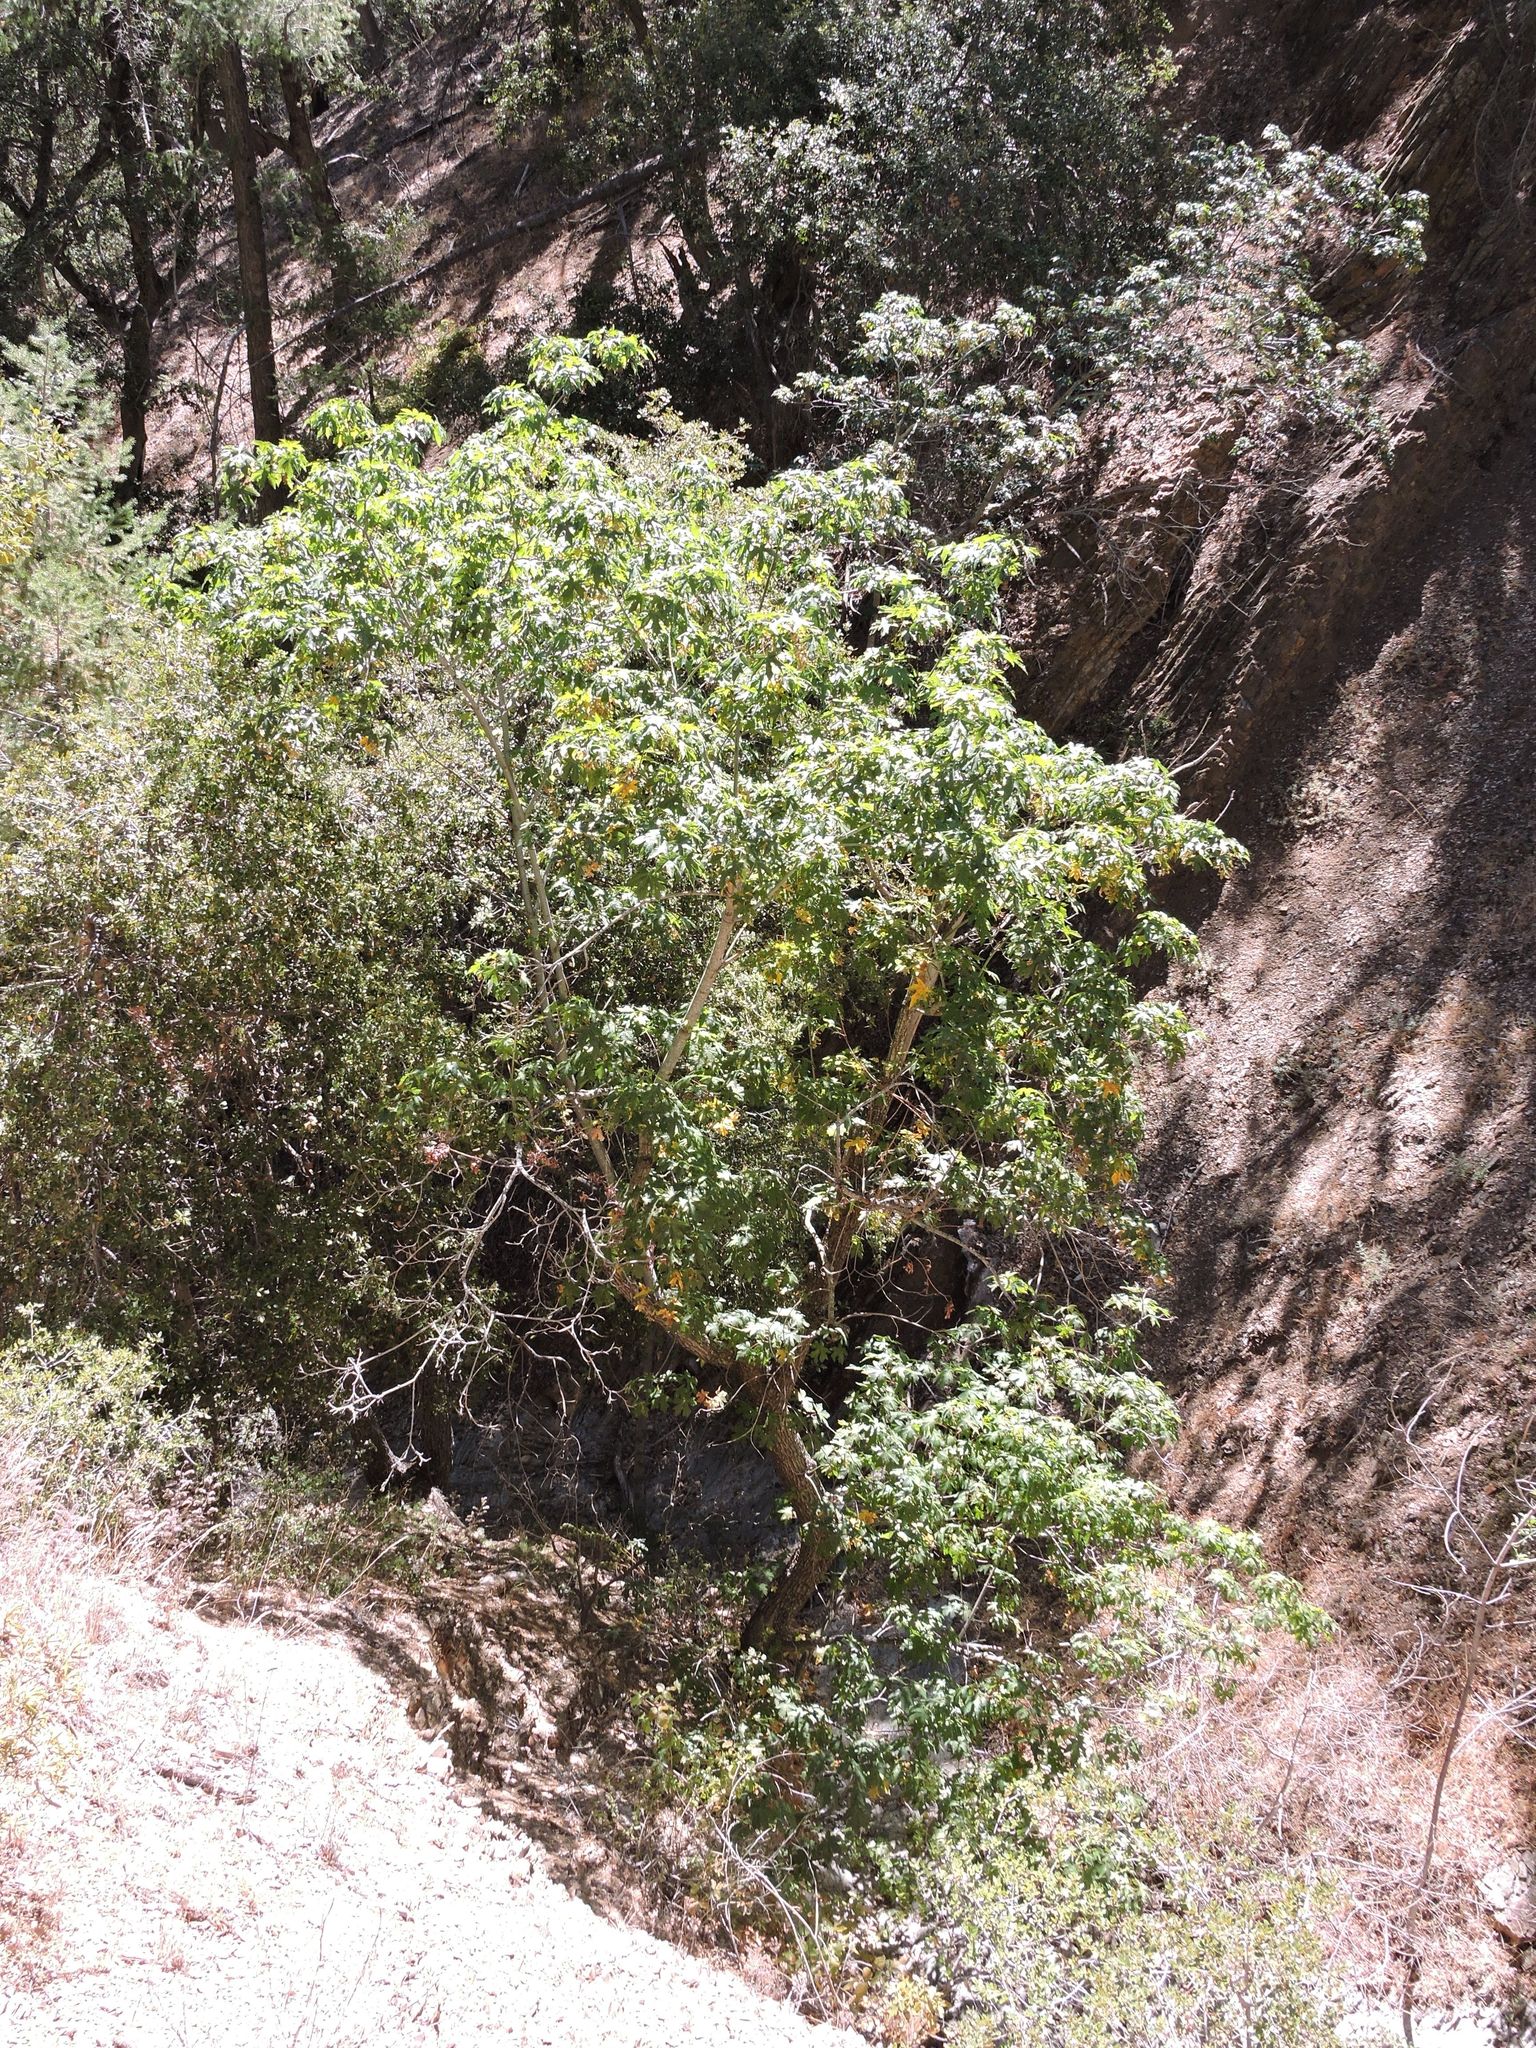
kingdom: Plantae
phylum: Tracheophyta
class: Magnoliopsida
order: Sapindales
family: Sapindaceae
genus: Acer
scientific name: Acer macrophyllum
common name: Oregon maple
